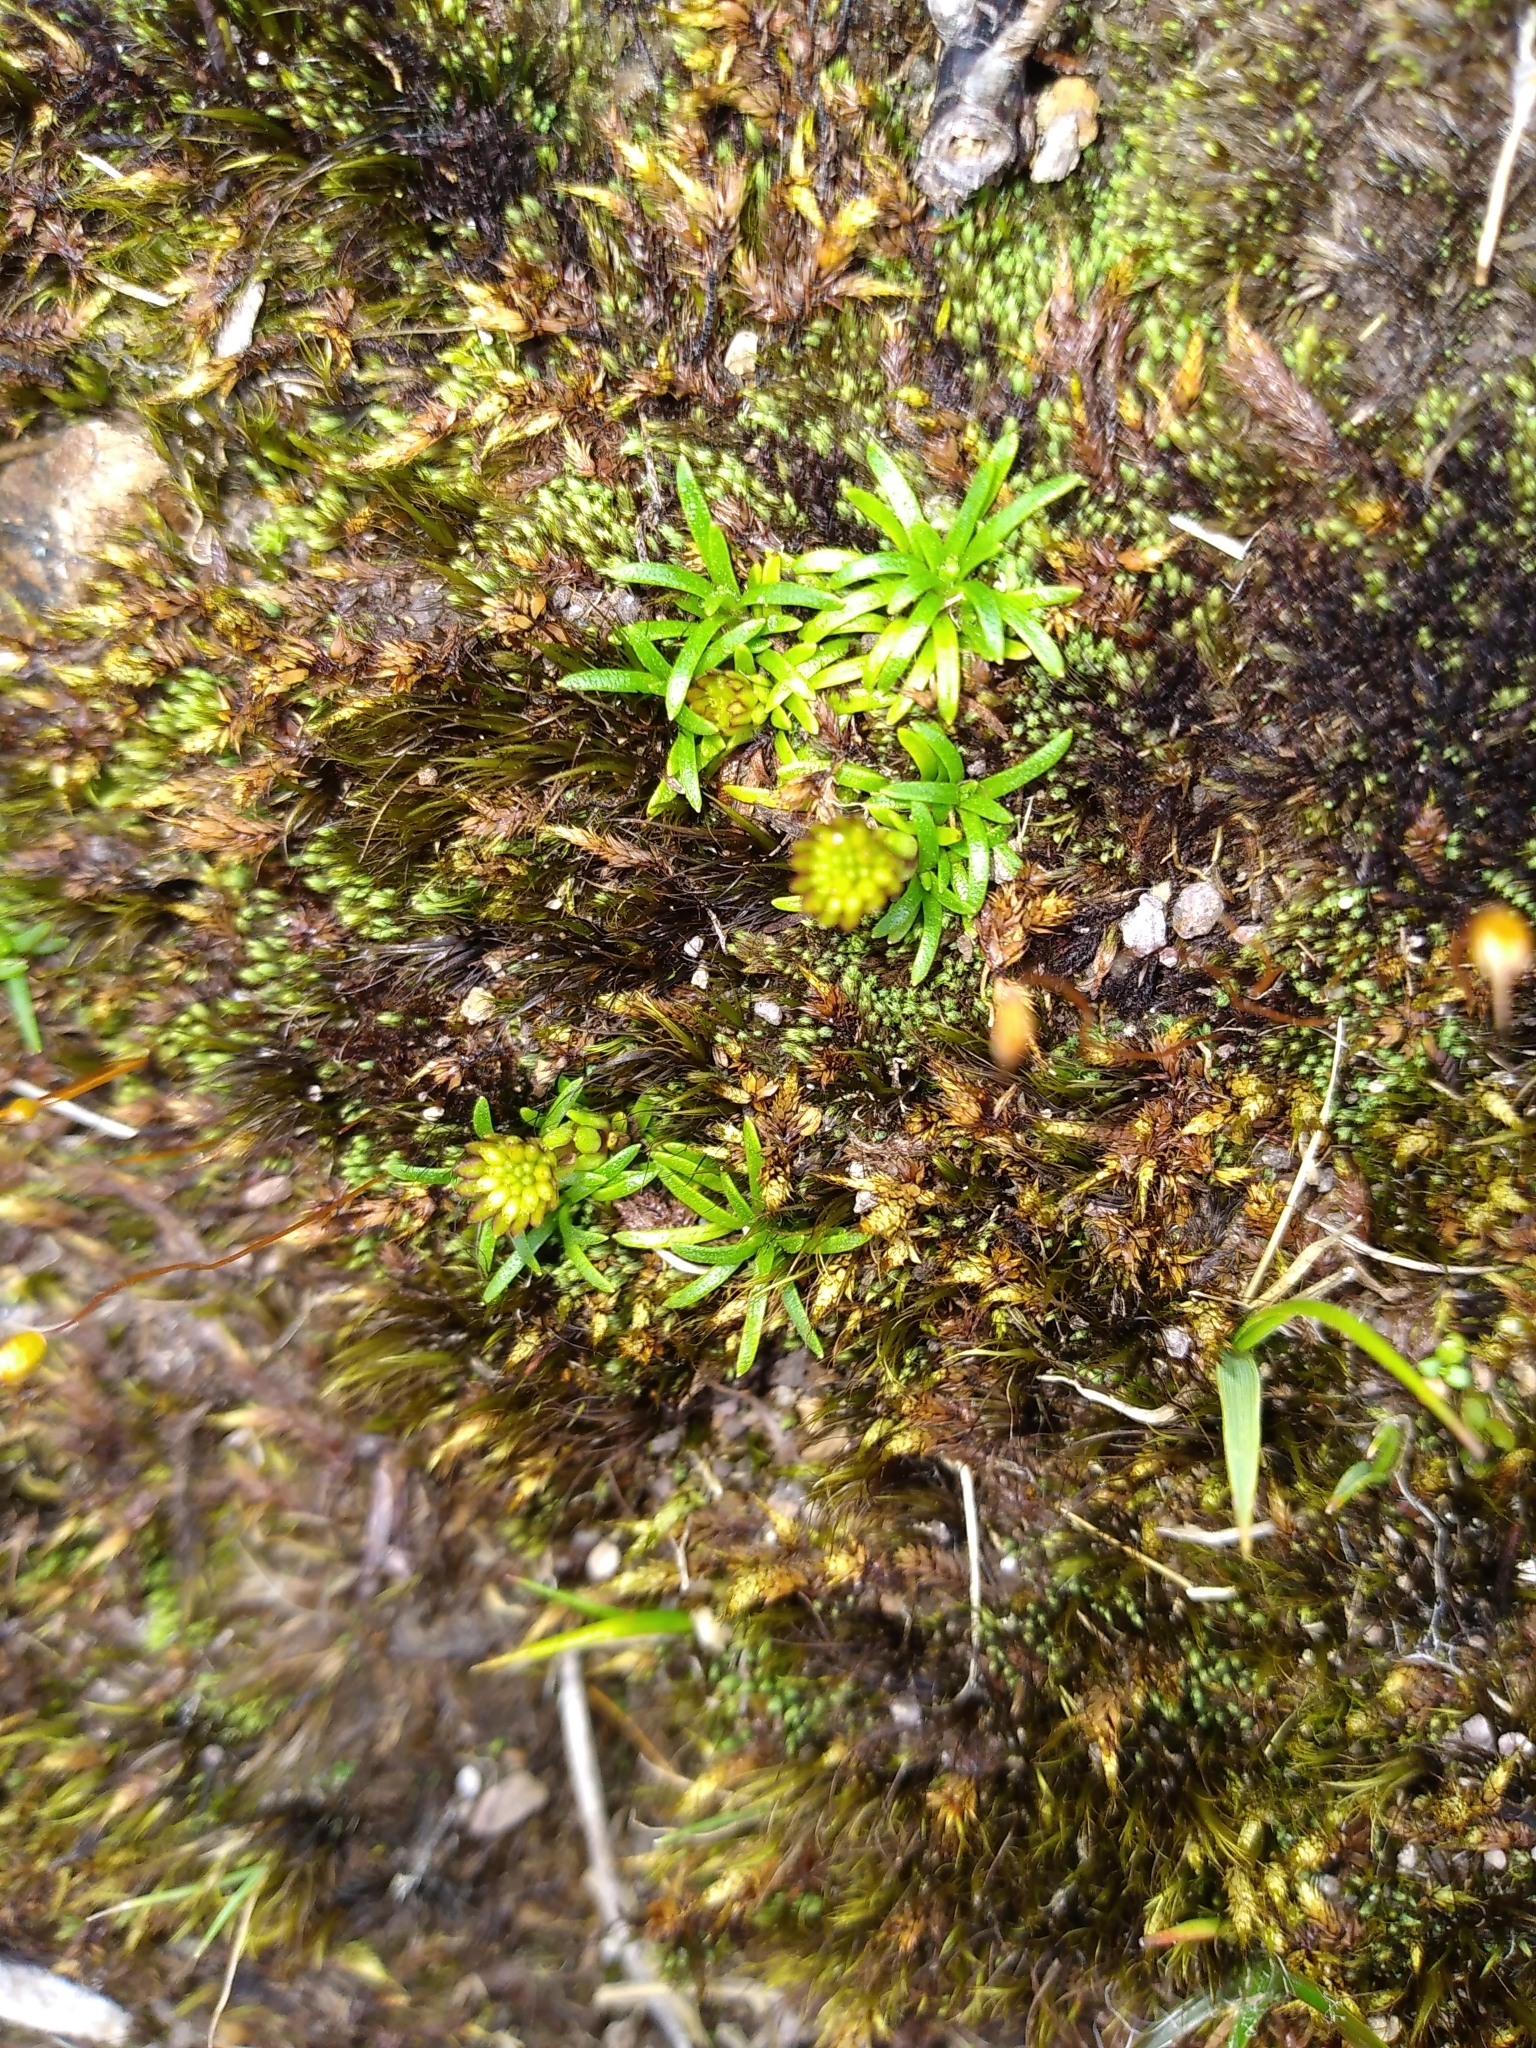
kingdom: Plantae
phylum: Tracheophyta
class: Magnoliopsida
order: Asterales
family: Asteraceae
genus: Abrotanella
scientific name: Abrotanella pusilla
